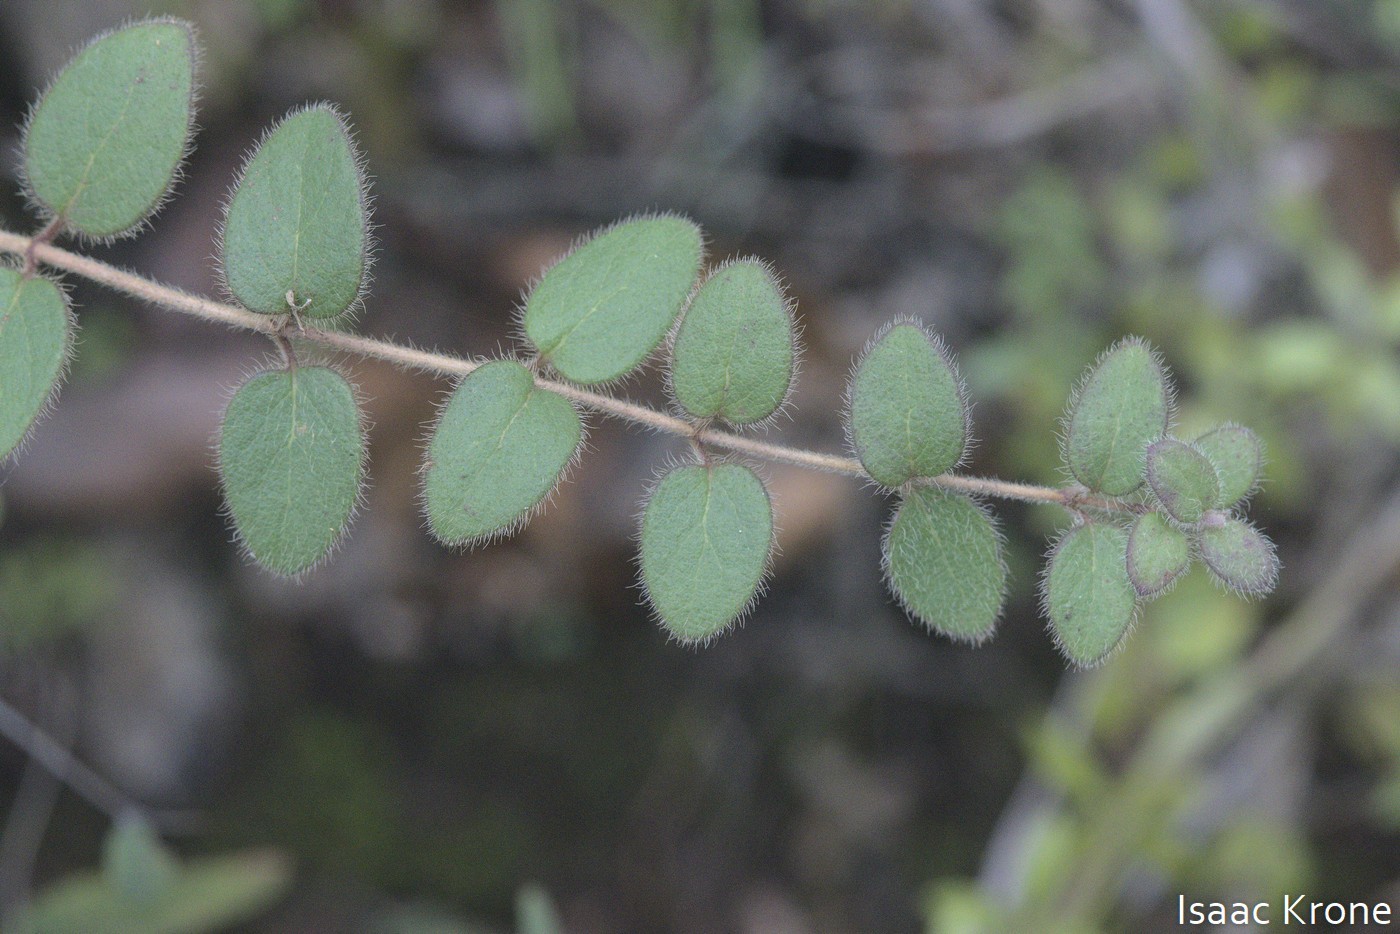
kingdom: Plantae
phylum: Tracheophyta
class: Magnoliopsida
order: Dipsacales
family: Caprifoliaceae
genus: Lonicera
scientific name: Lonicera hispidula
